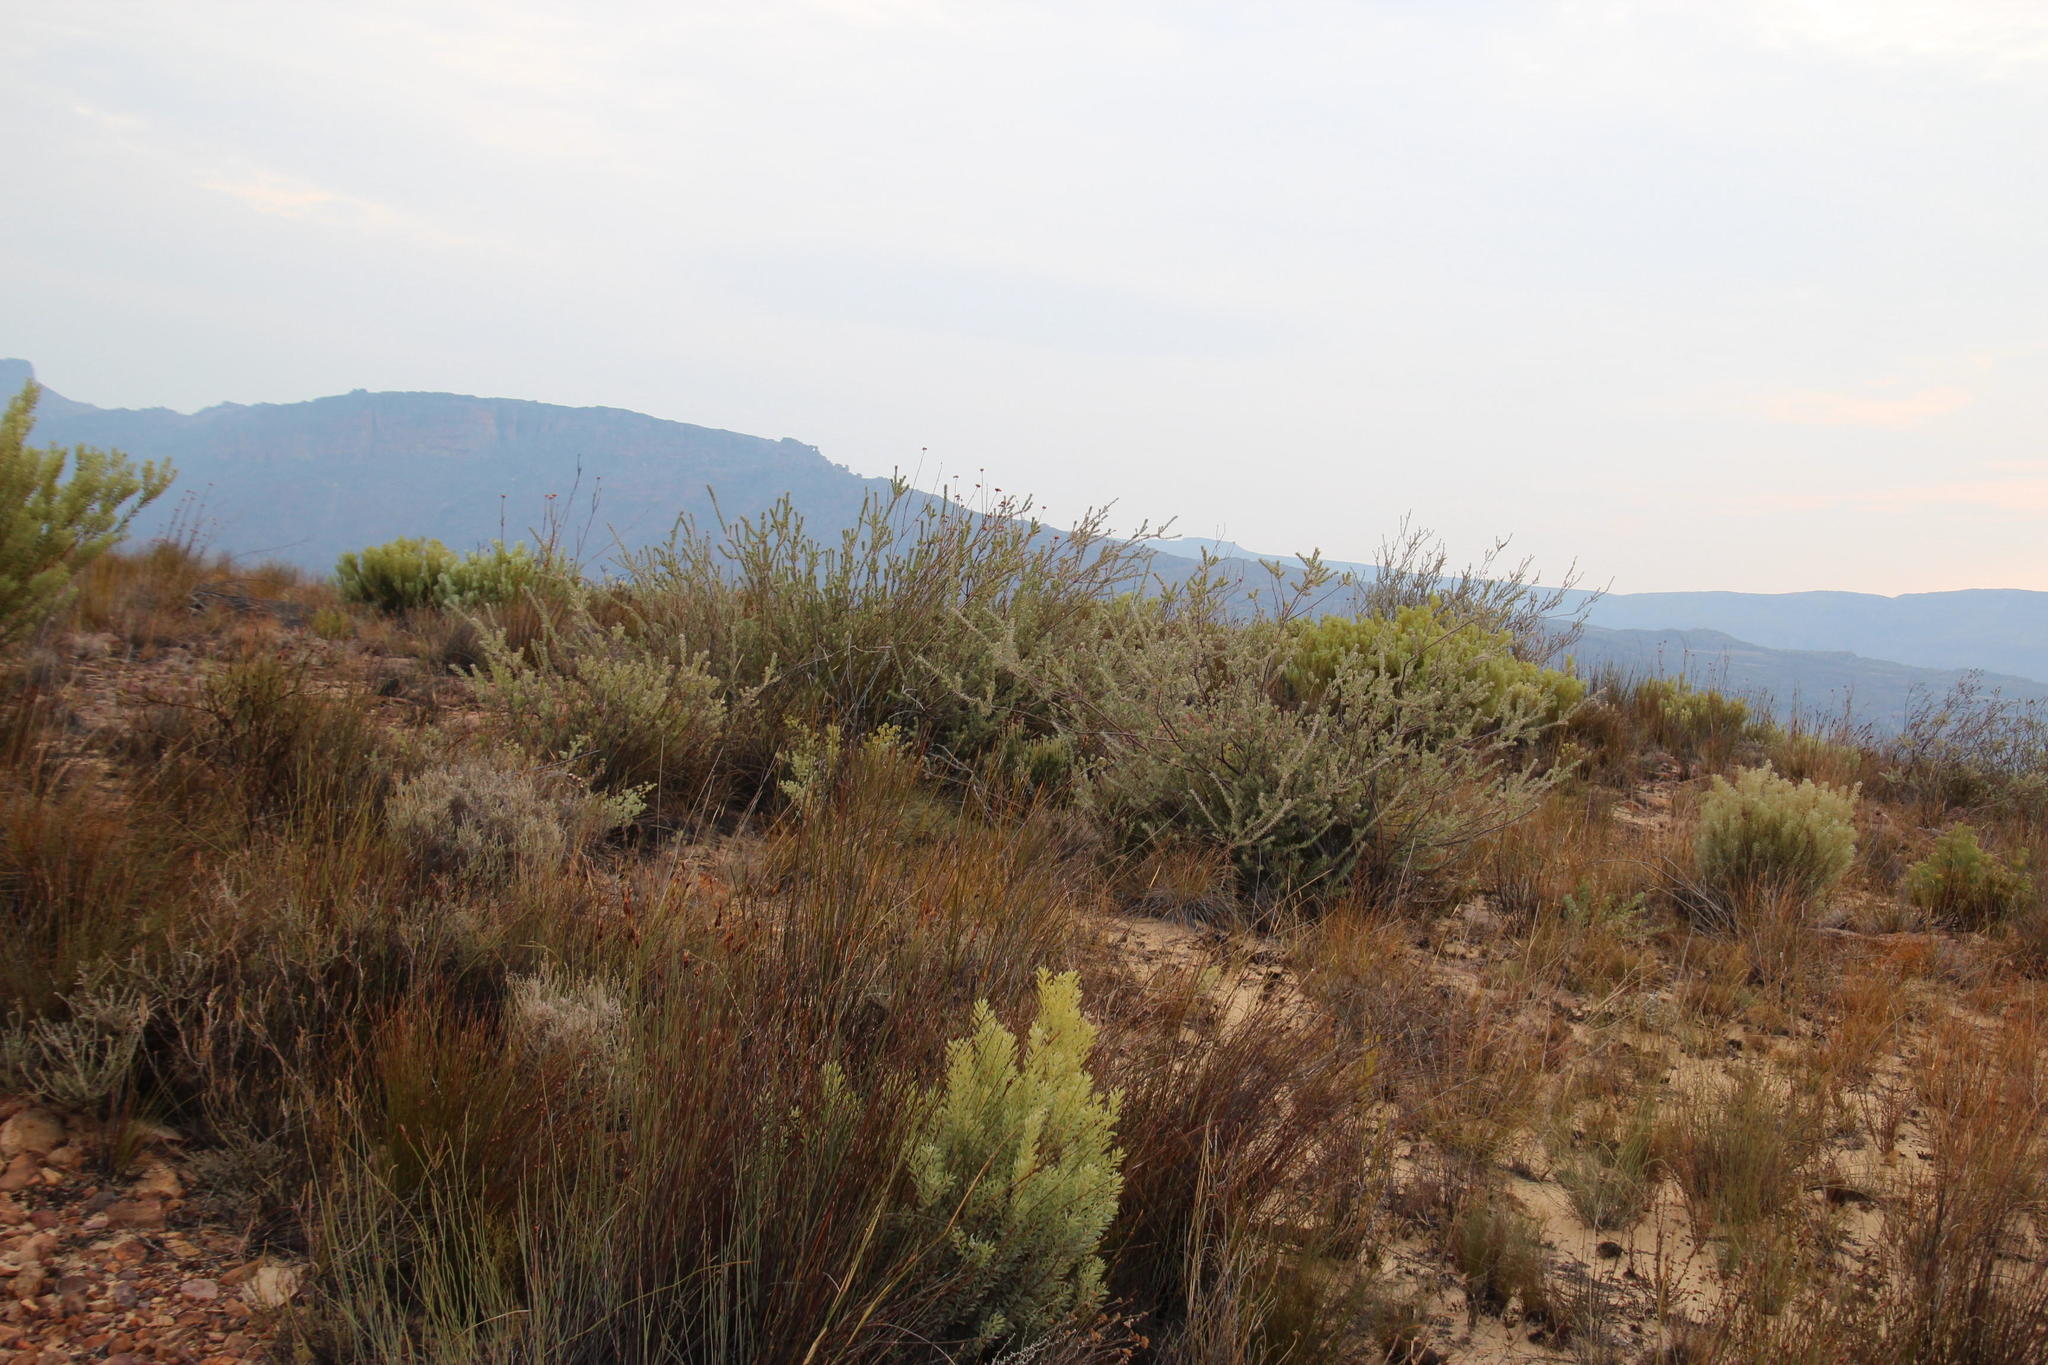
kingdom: Plantae
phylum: Tracheophyta
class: Magnoliopsida
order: Proteales
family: Proteaceae
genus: Leucospermum
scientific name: Leucospermum calligerum
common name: Arid pincushion
